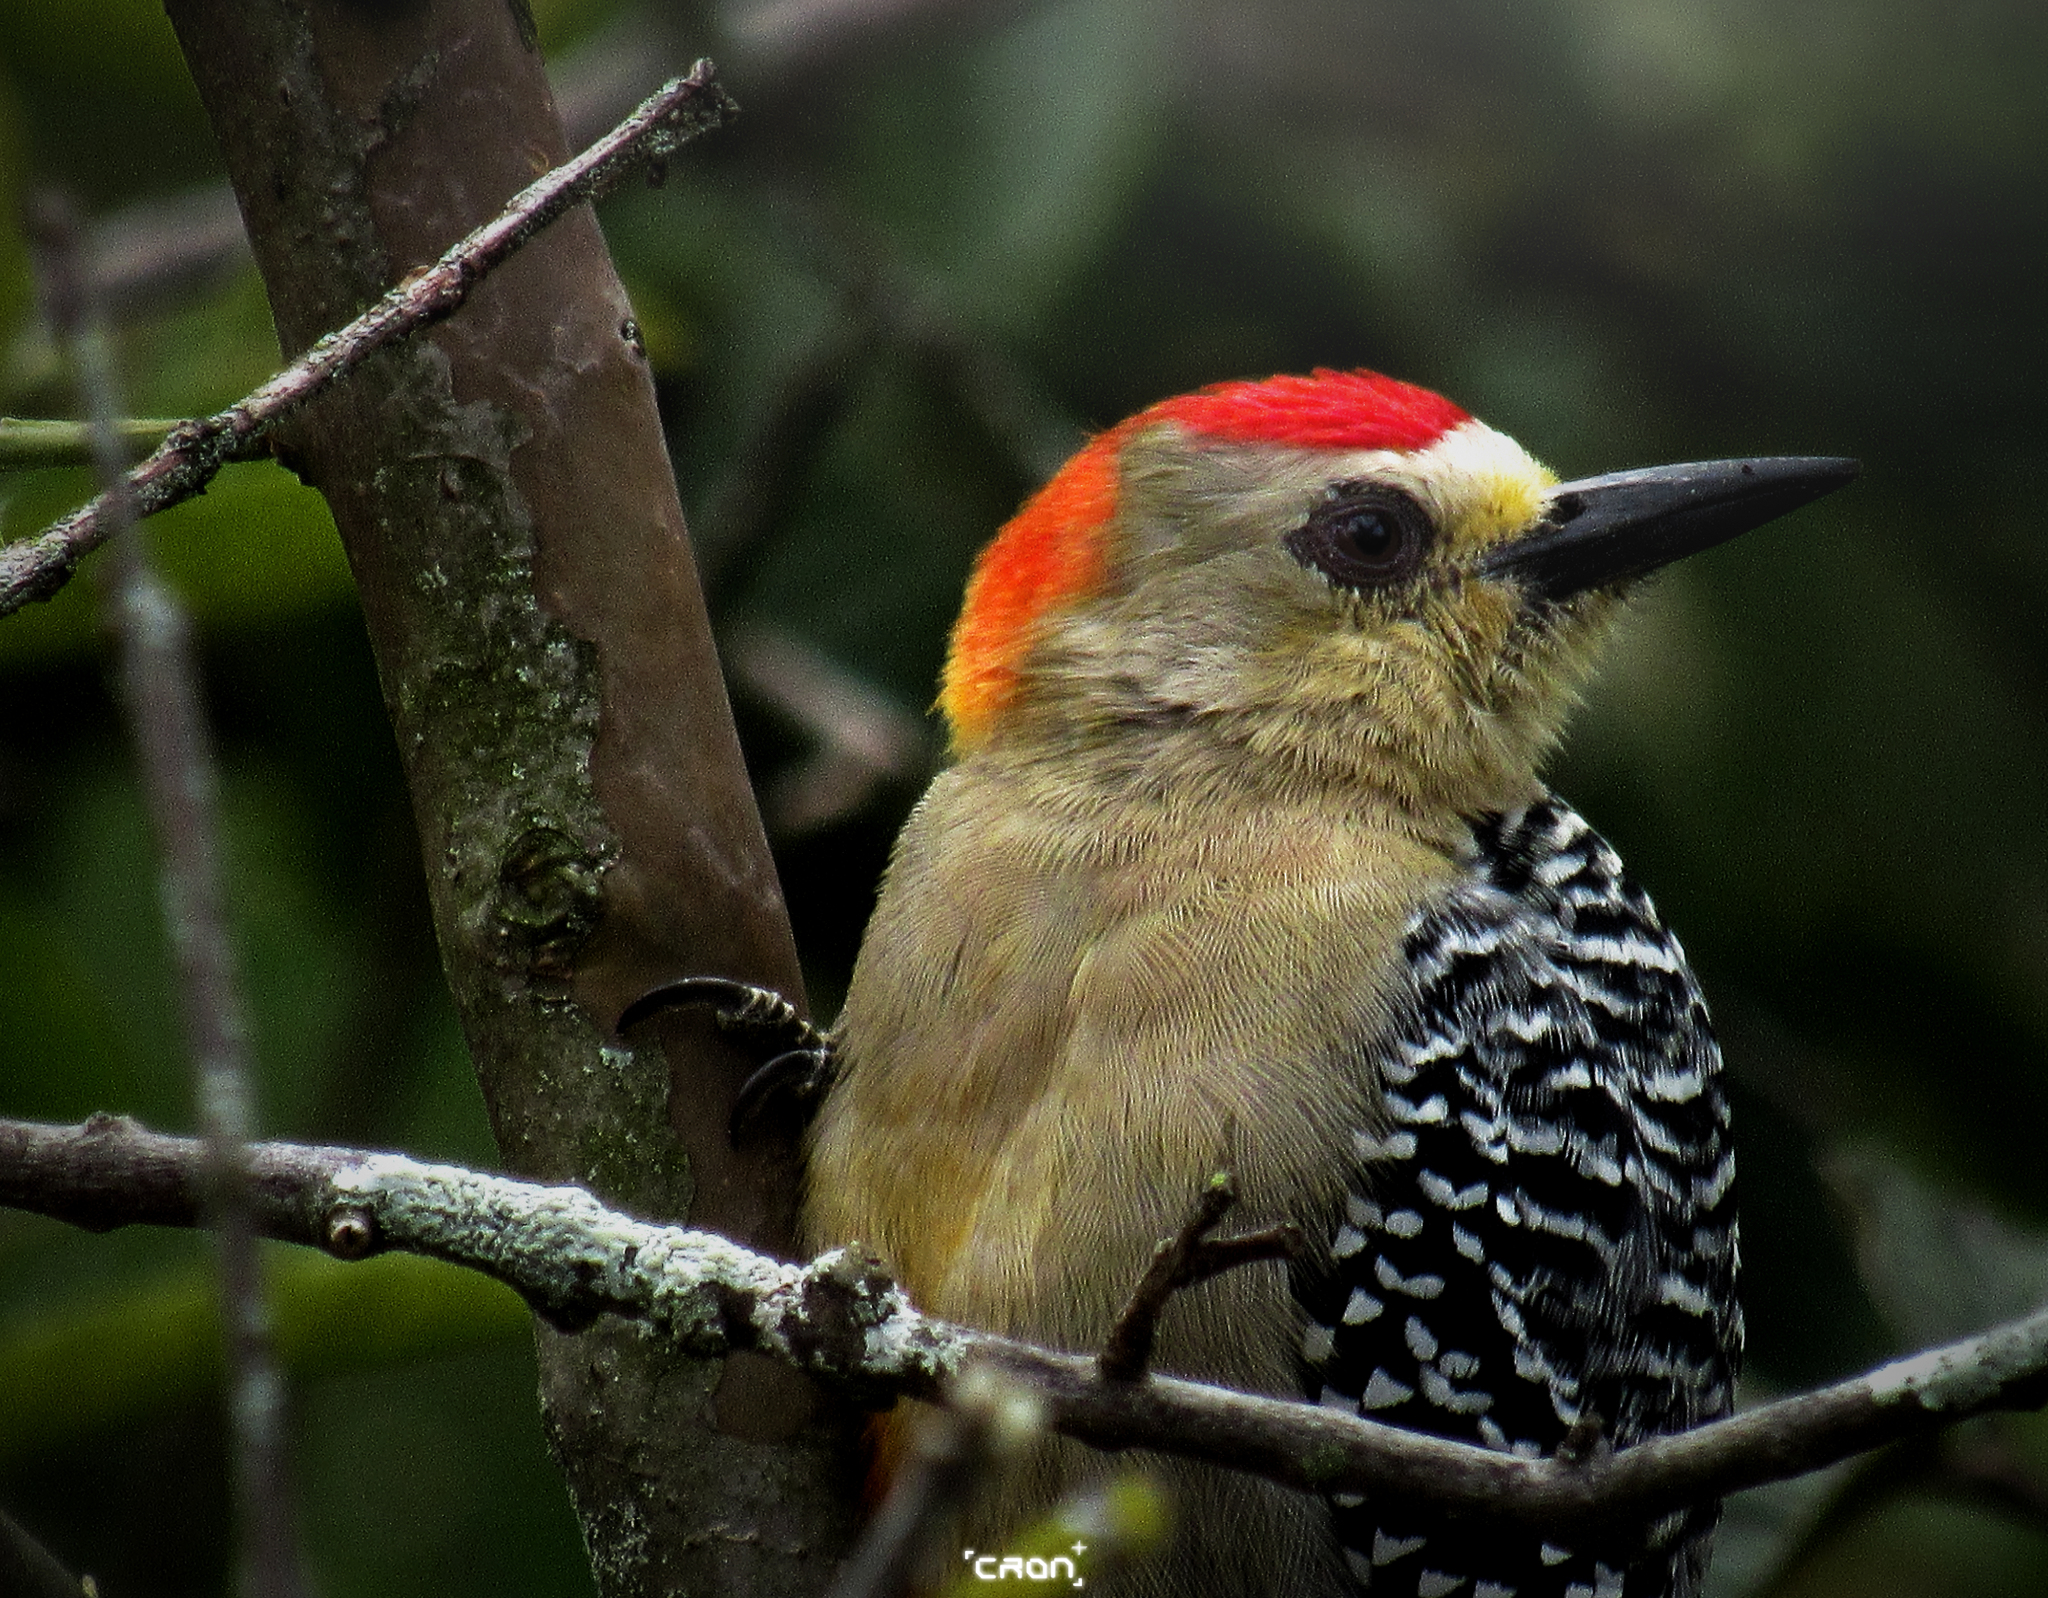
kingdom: Animalia
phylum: Chordata
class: Aves
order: Piciformes
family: Picidae
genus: Melanerpes
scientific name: Melanerpes rubricapillus
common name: Red-crowned woodpecker
